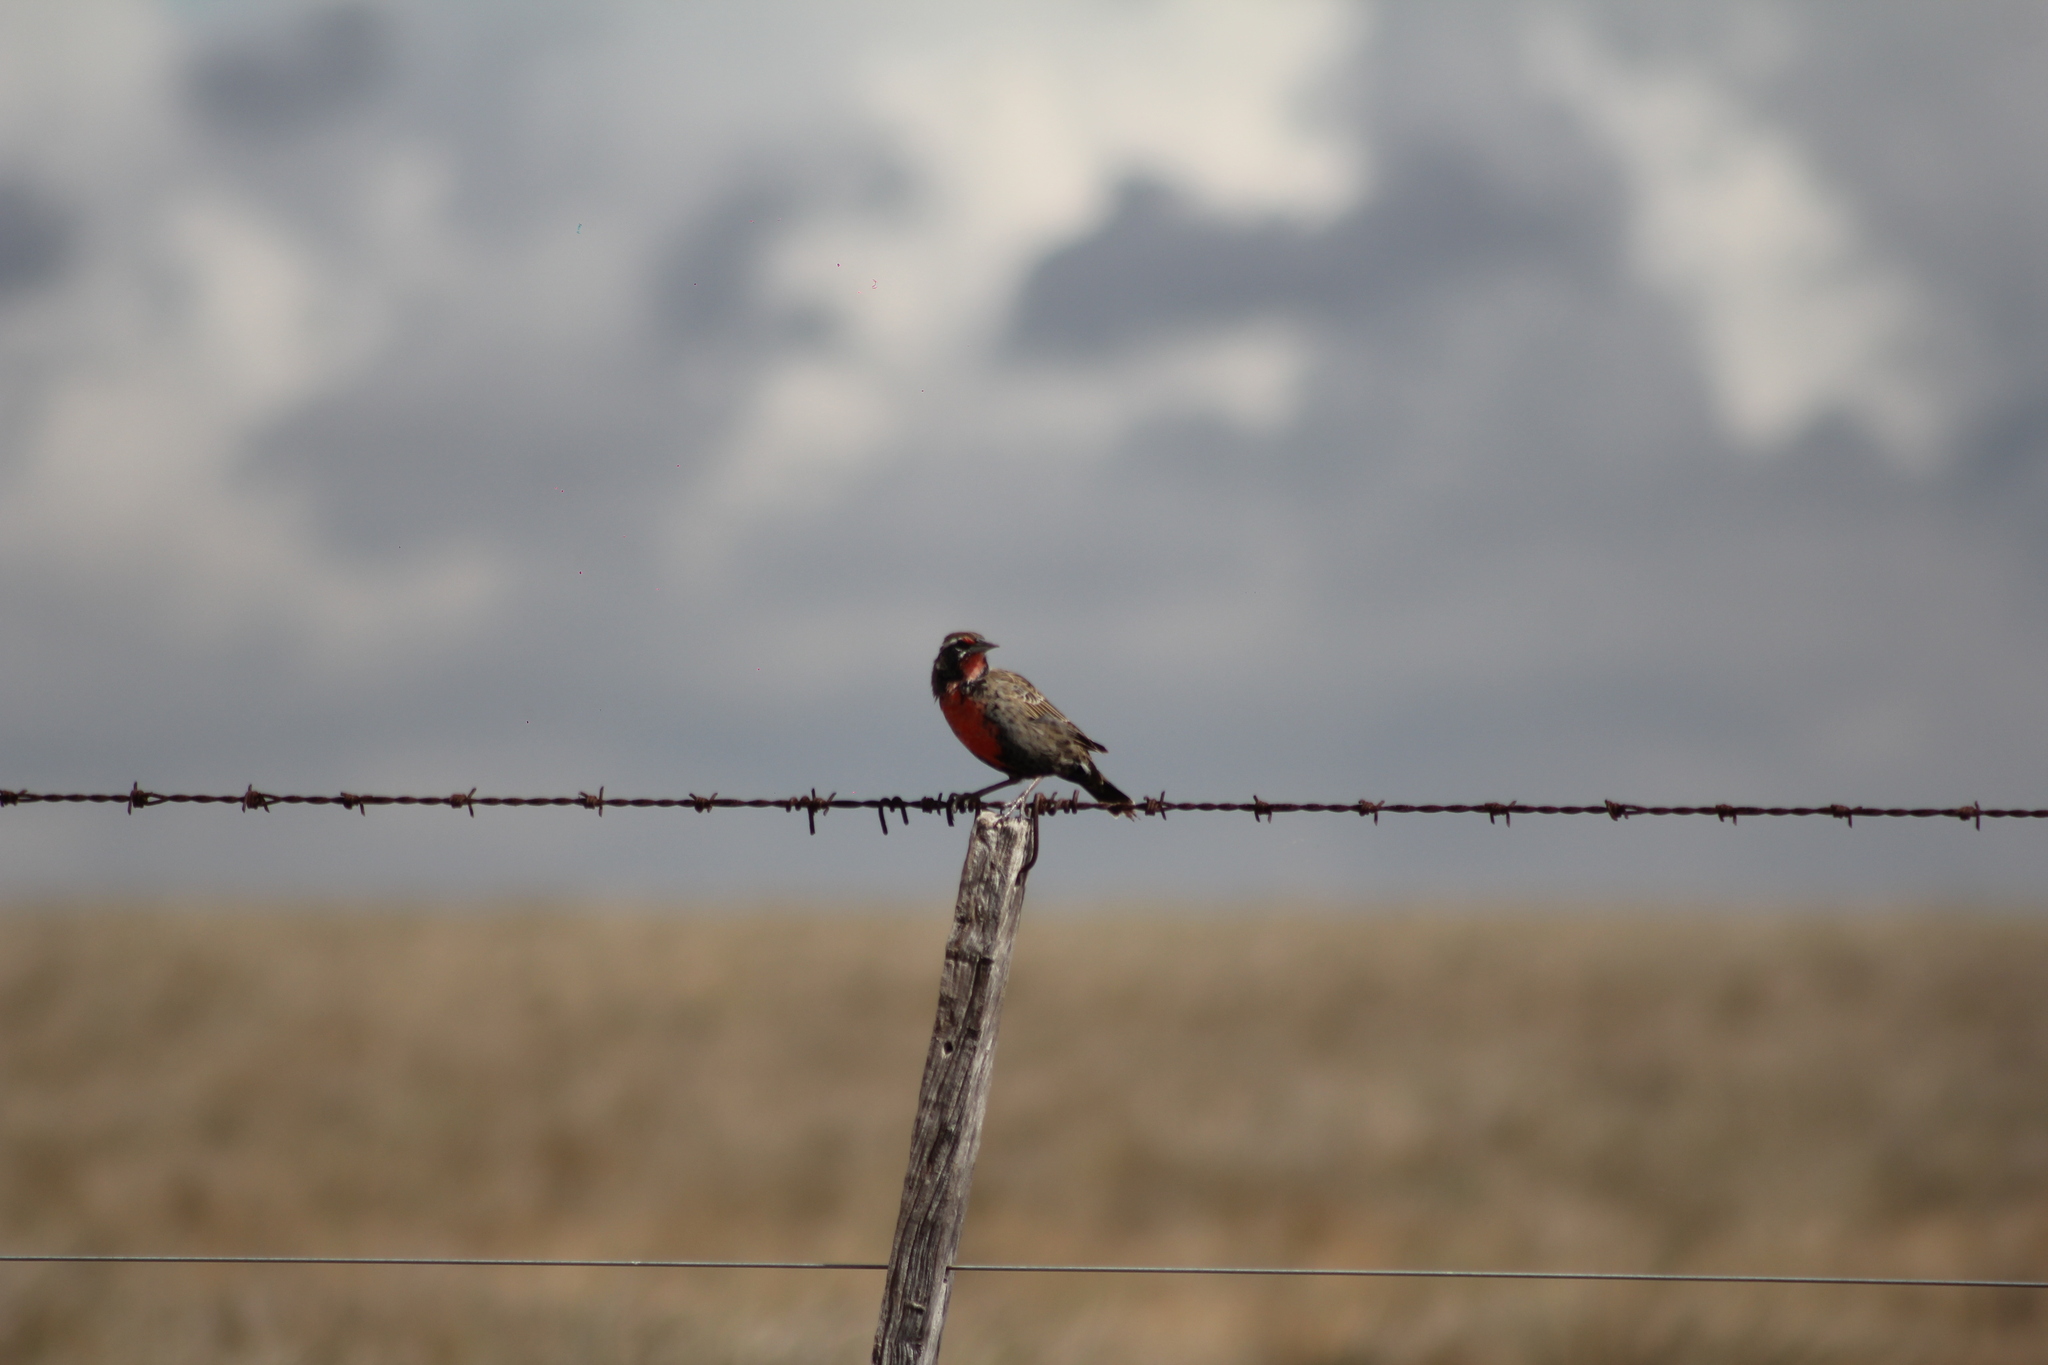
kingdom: Animalia
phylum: Chordata
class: Aves
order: Passeriformes
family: Icteridae
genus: Sturnella
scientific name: Sturnella loyca
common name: Long-tailed meadowlark
